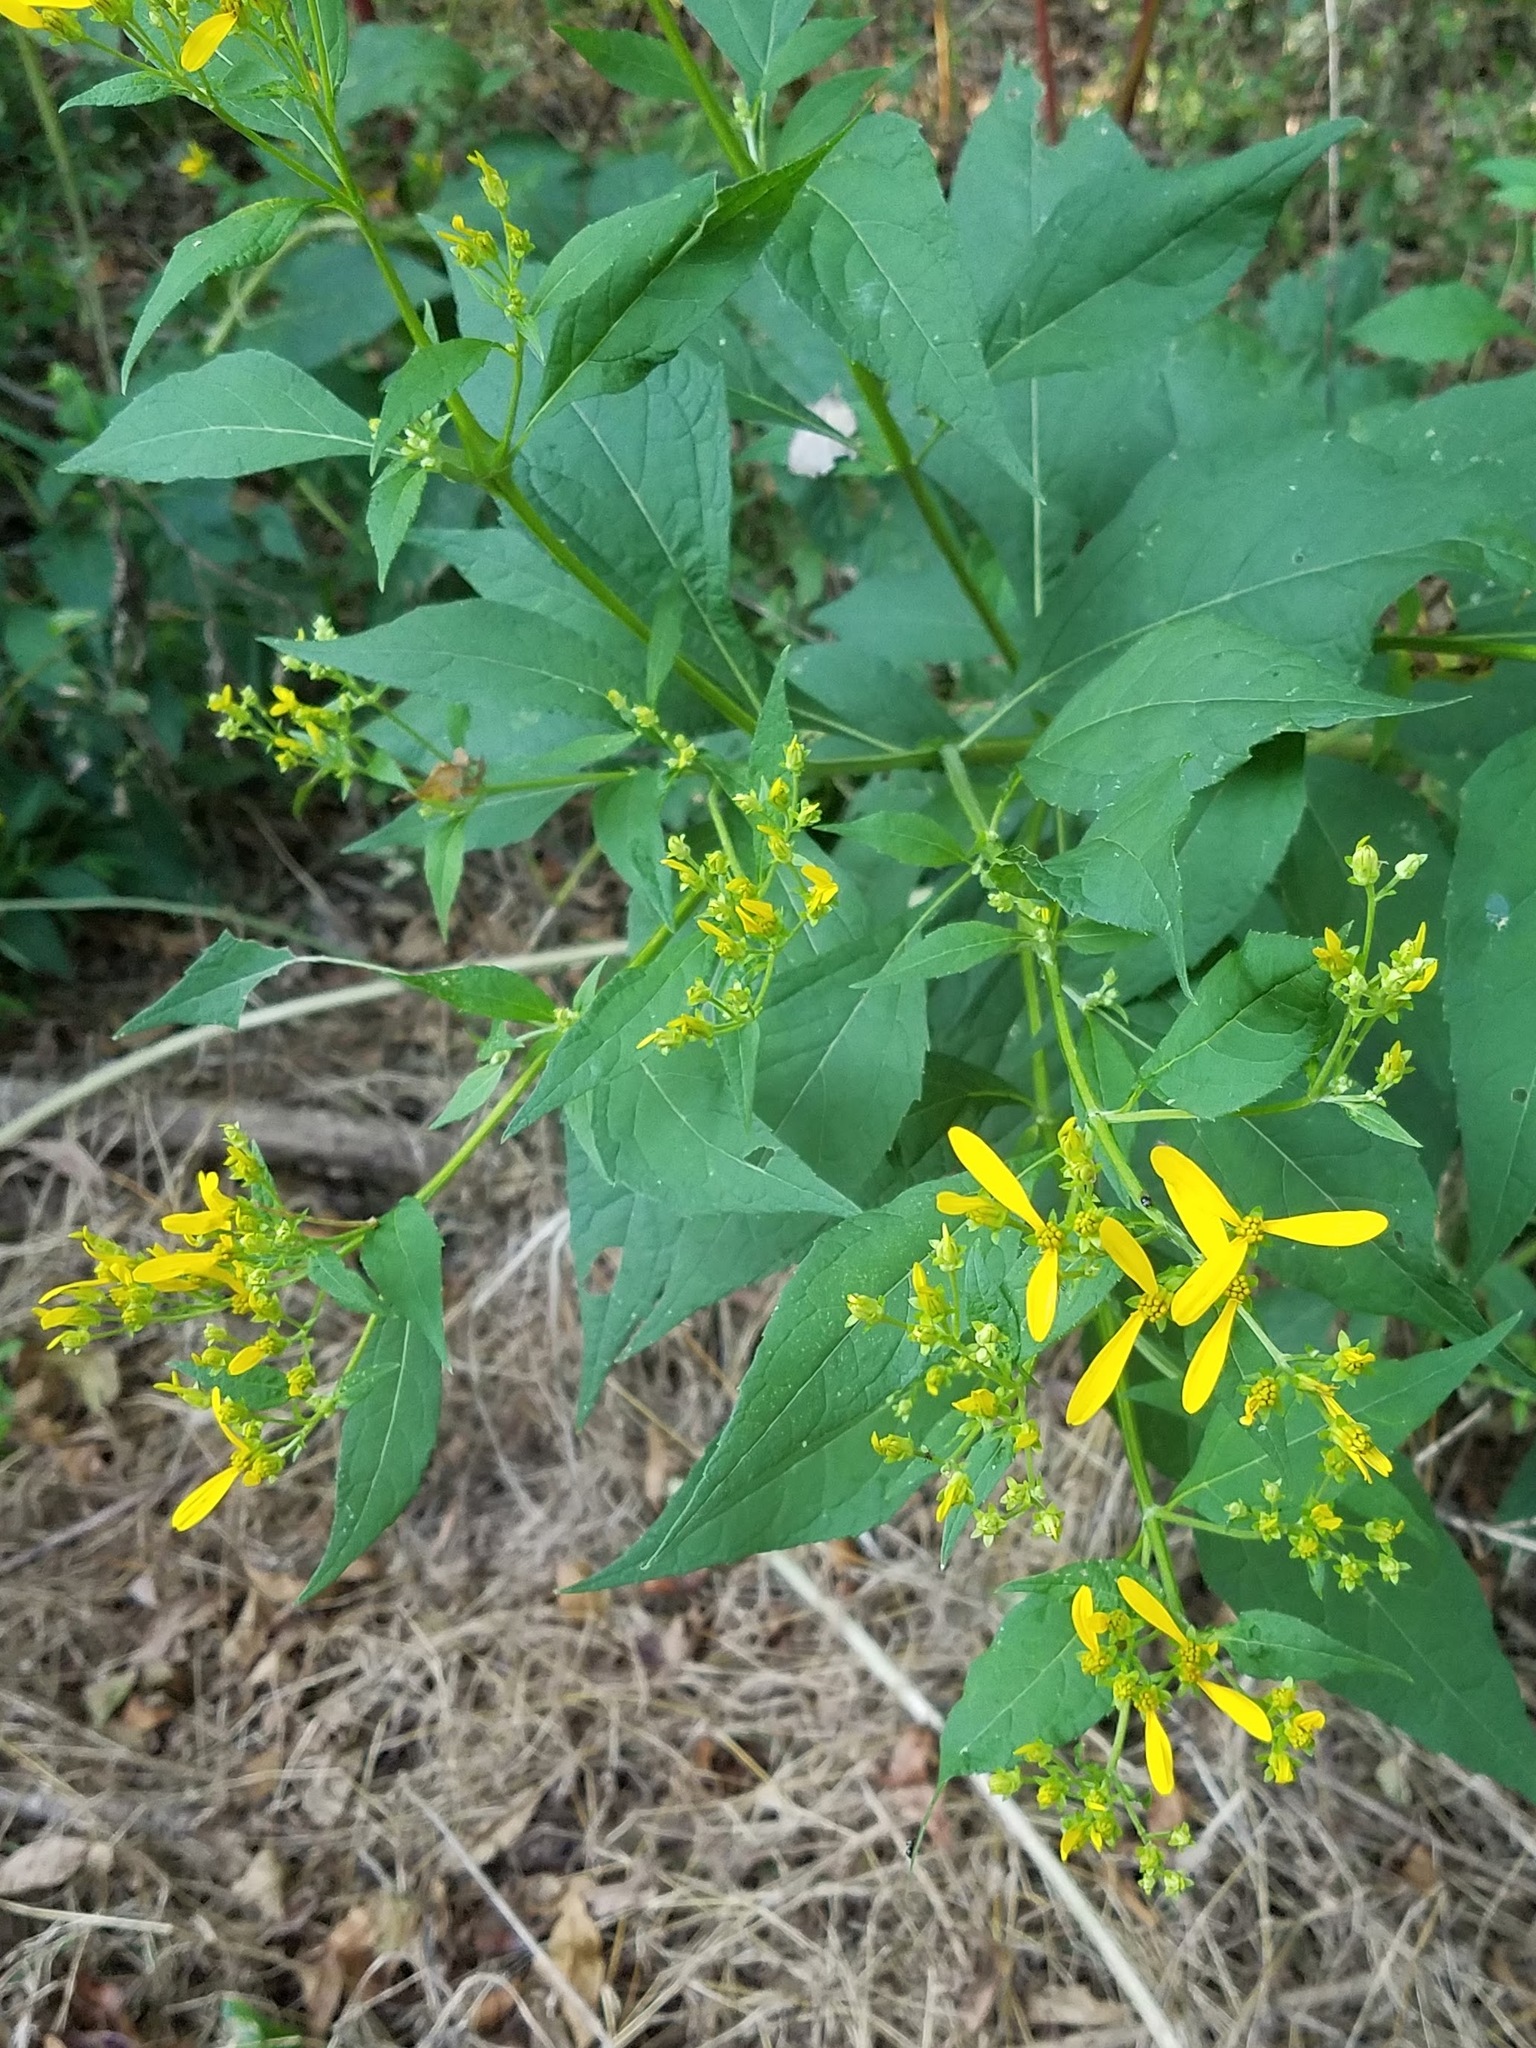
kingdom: Plantae
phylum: Tracheophyta
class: Magnoliopsida
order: Asterales
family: Asteraceae
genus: Verbesina
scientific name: Verbesina occidentalis
